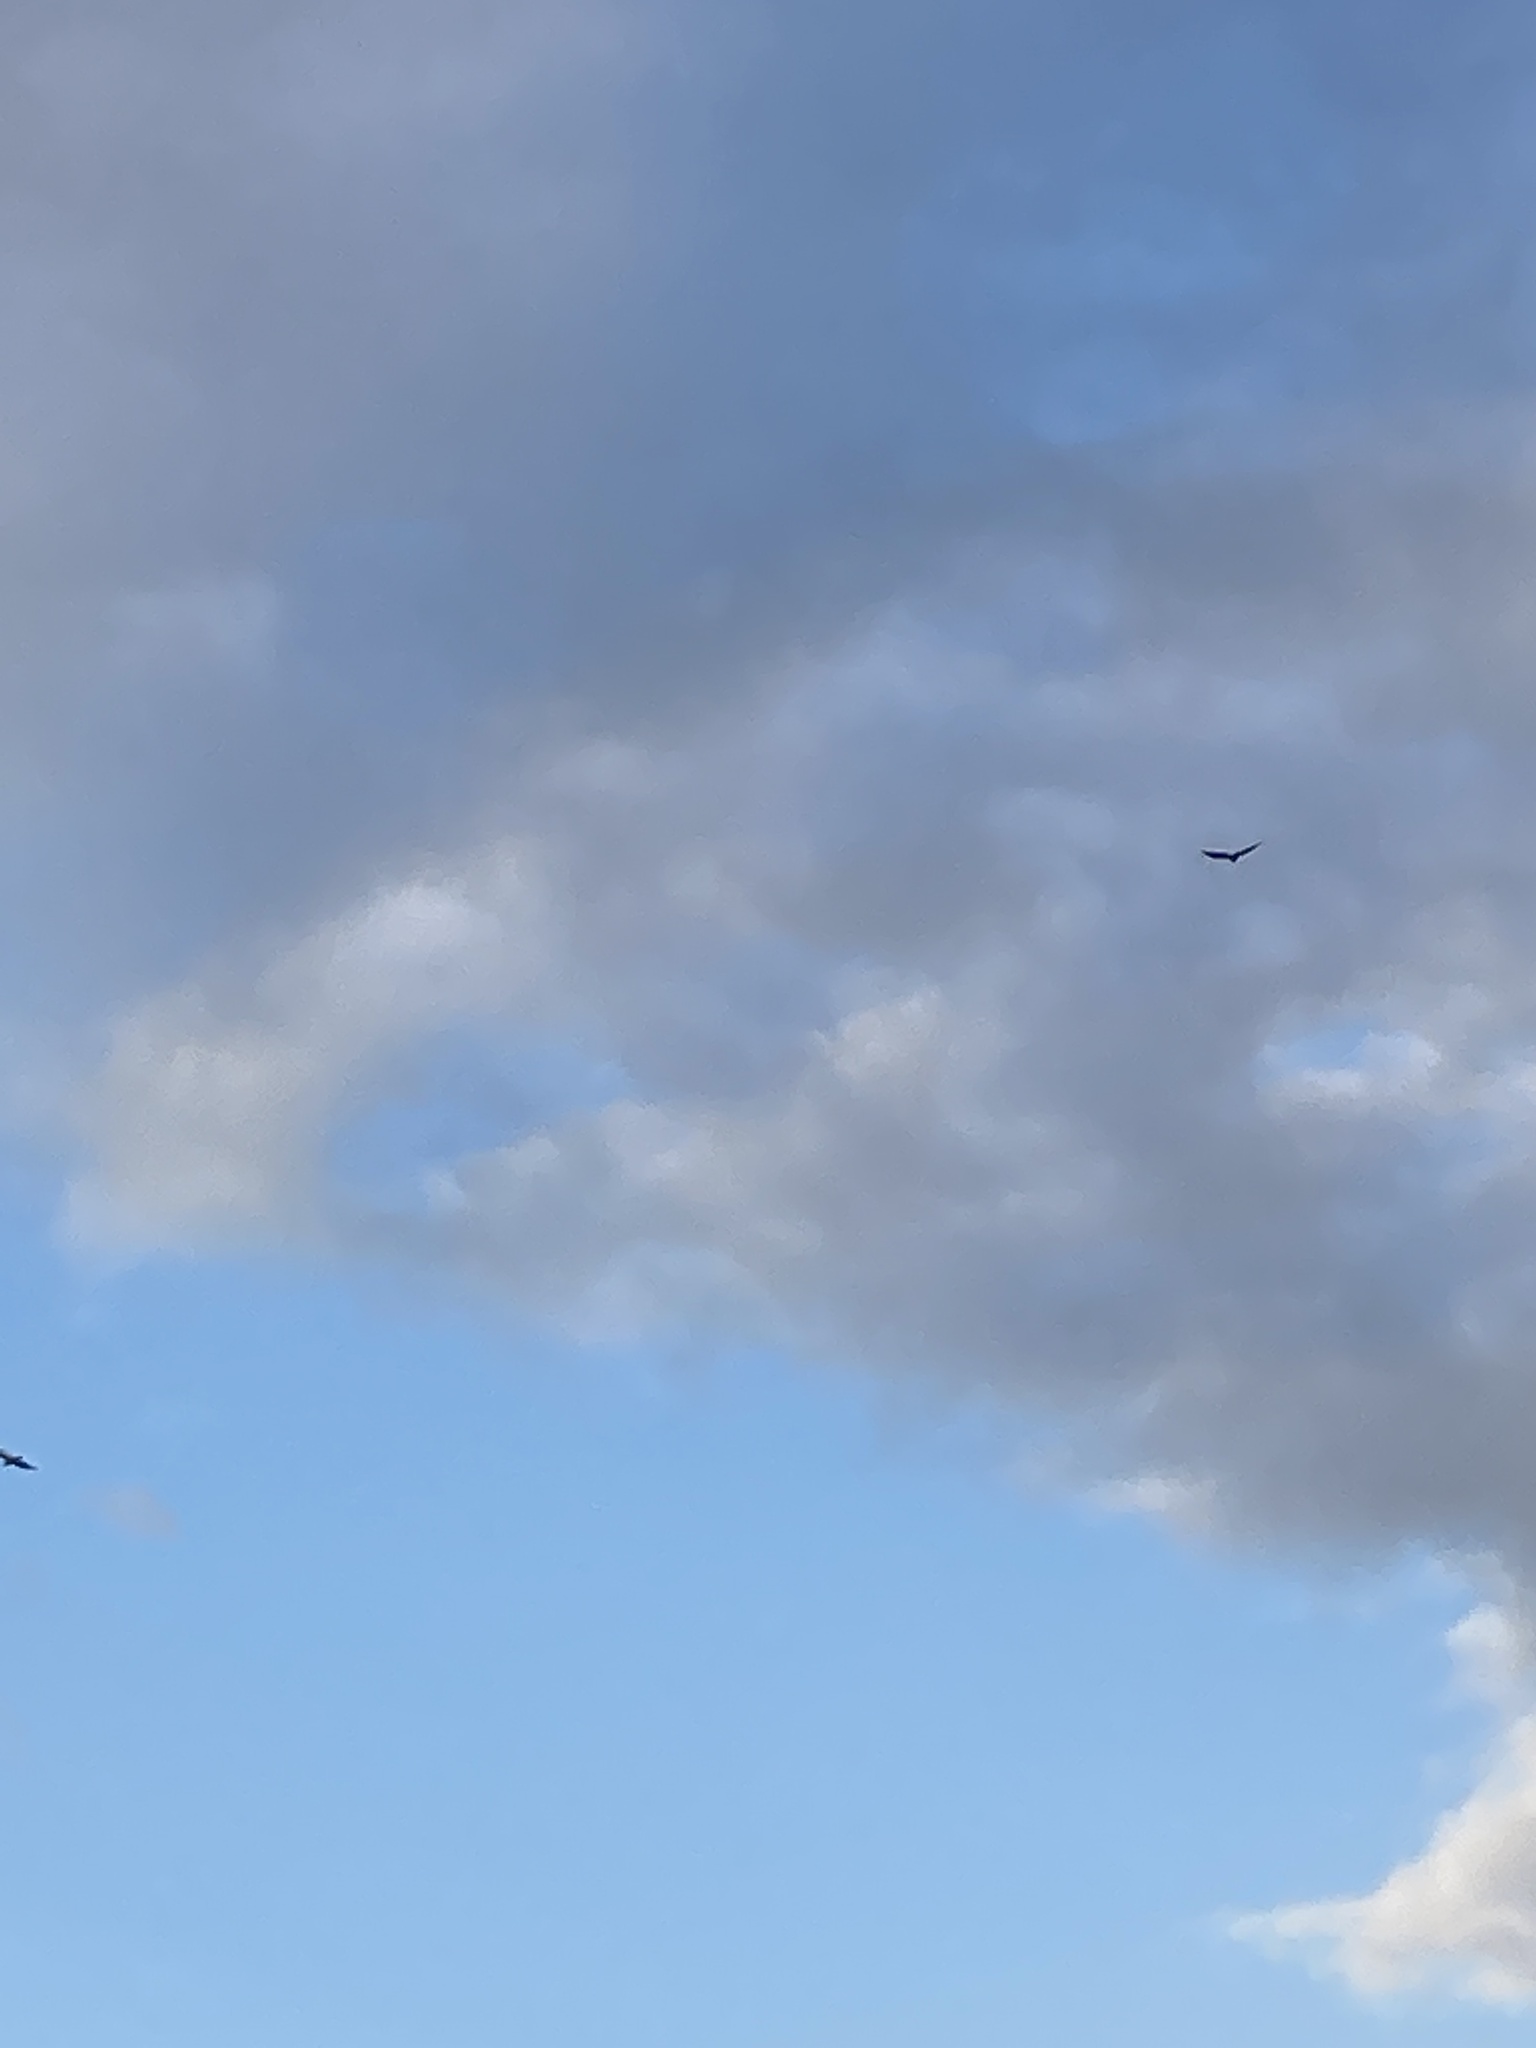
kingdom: Animalia
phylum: Chordata
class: Aves
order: Accipitriformes
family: Cathartidae
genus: Cathartes
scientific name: Cathartes aura
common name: Turkey vulture
